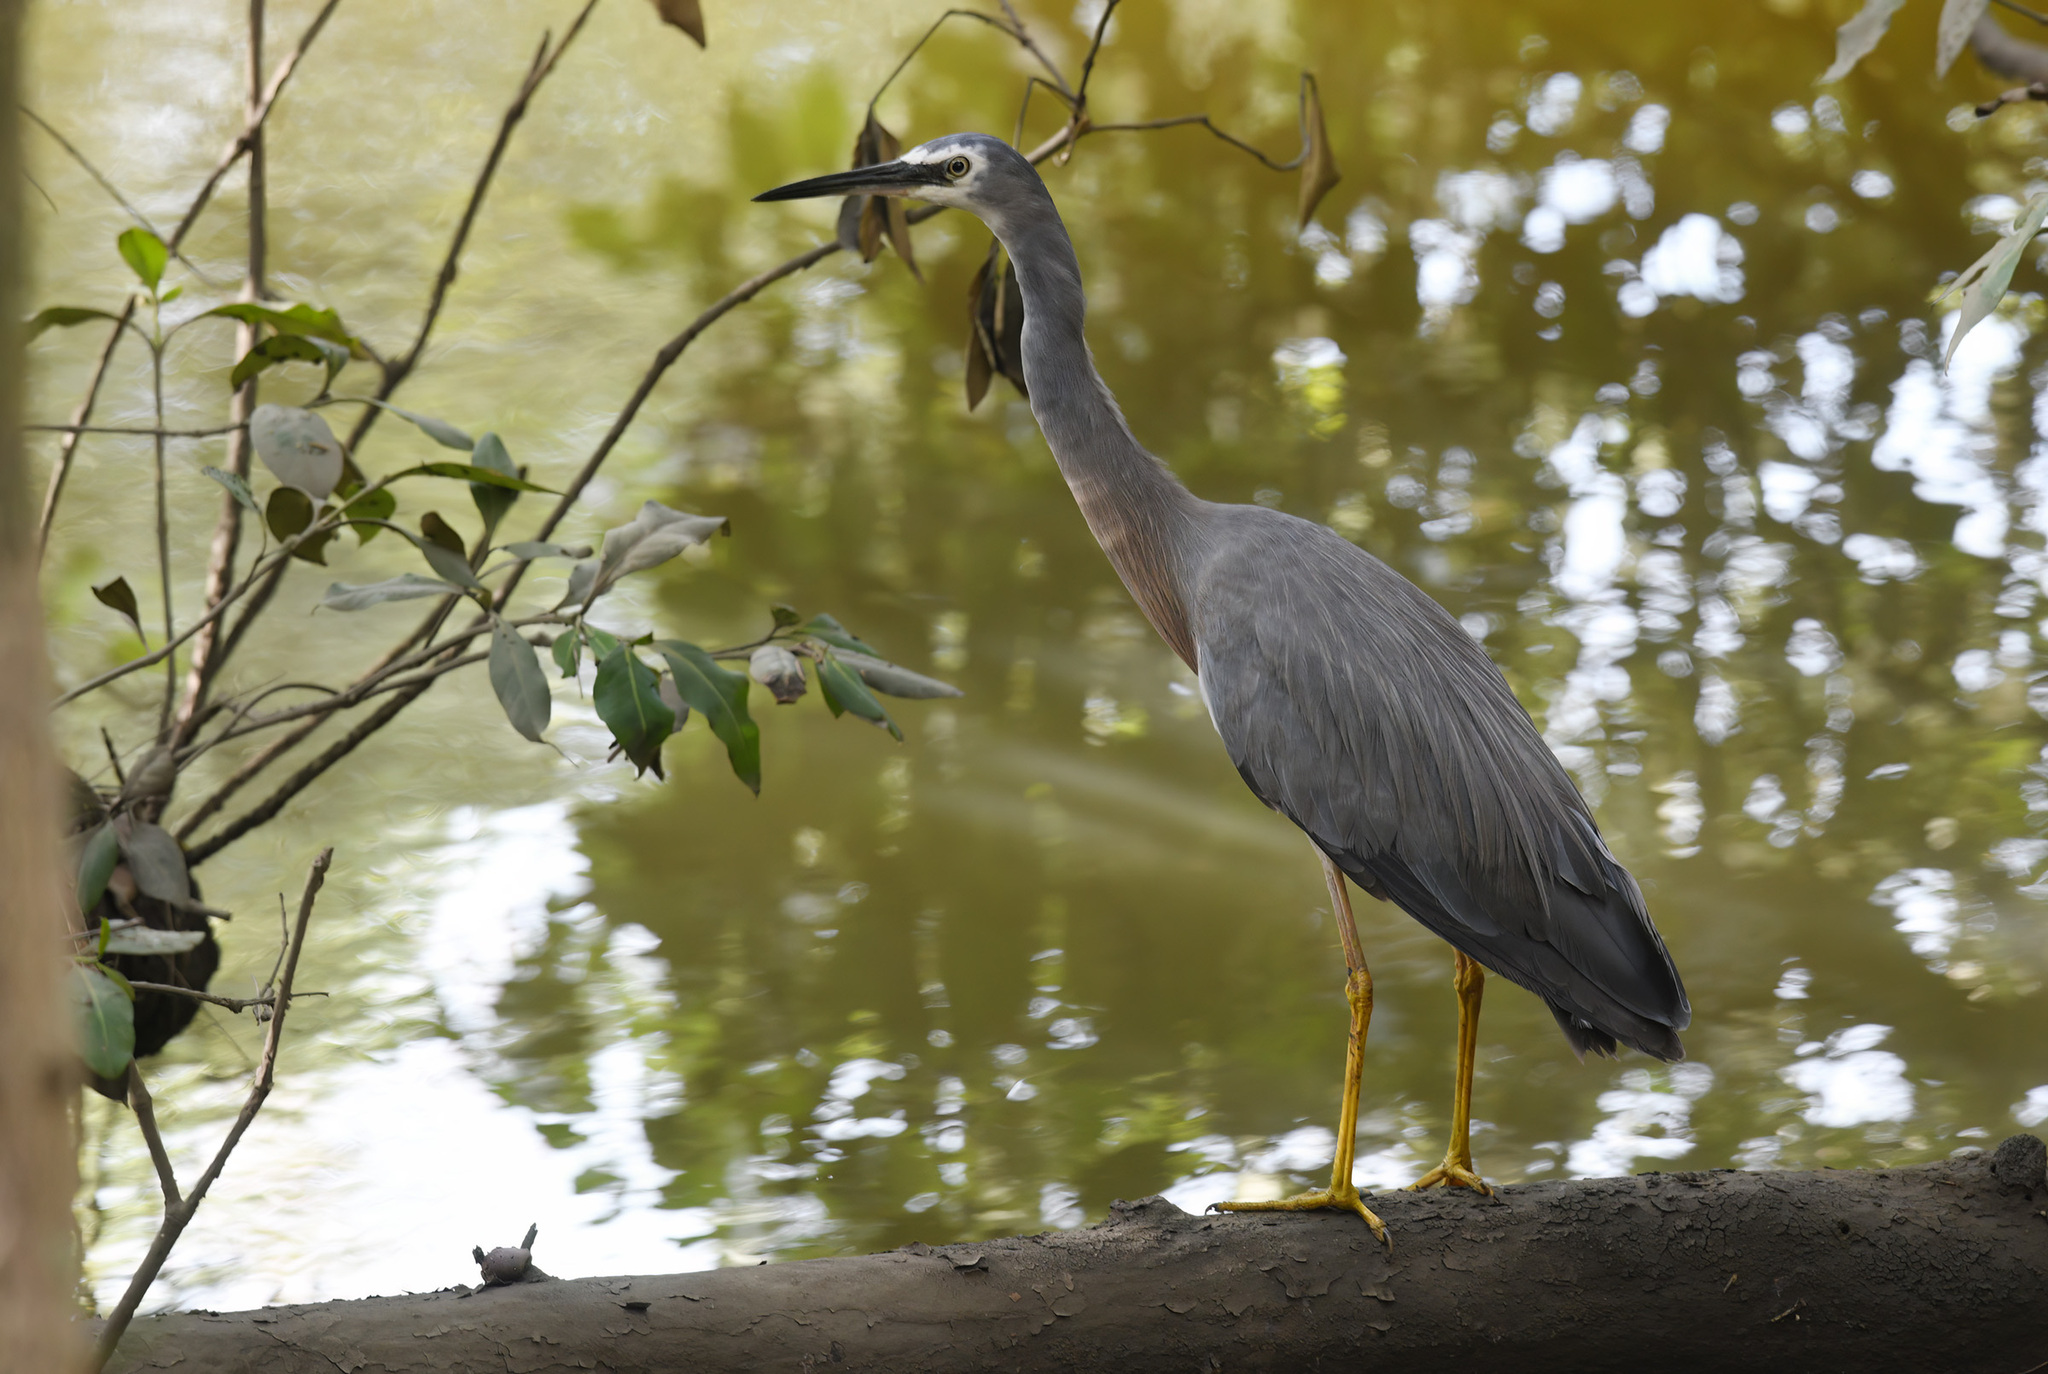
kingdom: Animalia
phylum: Chordata
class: Aves
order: Pelecaniformes
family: Ardeidae
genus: Egretta
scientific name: Egretta novaehollandiae
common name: White-faced heron
